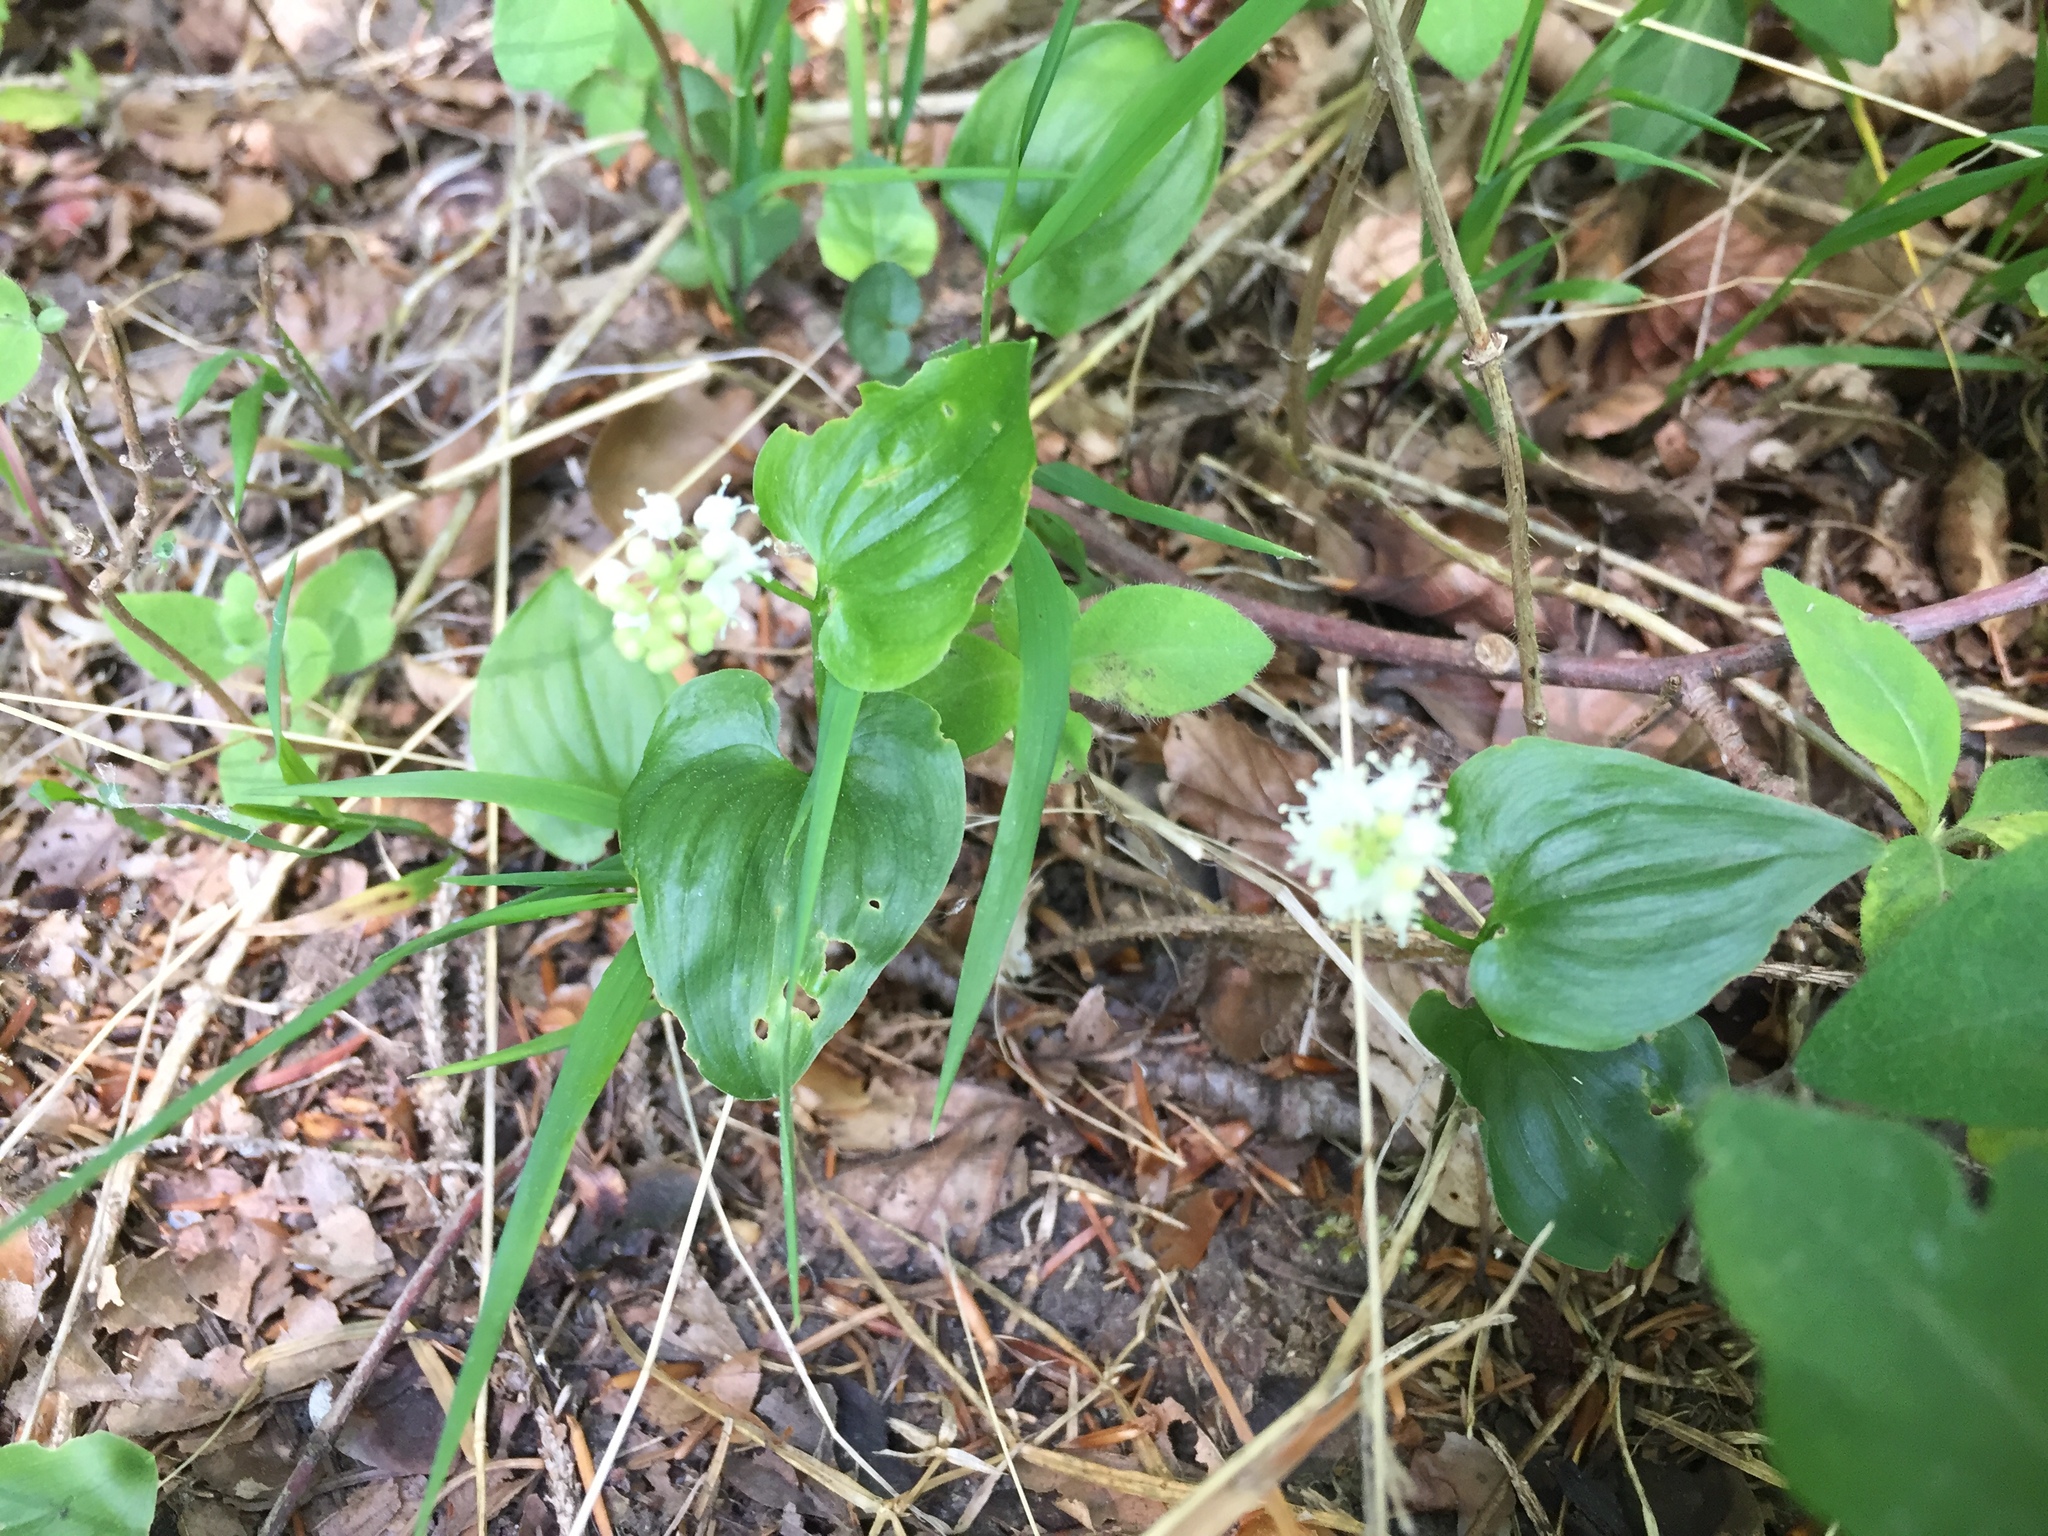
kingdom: Plantae
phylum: Tracheophyta
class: Liliopsida
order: Asparagales
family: Asparagaceae
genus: Maianthemum
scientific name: Maianthemum bifolium
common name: May lily
